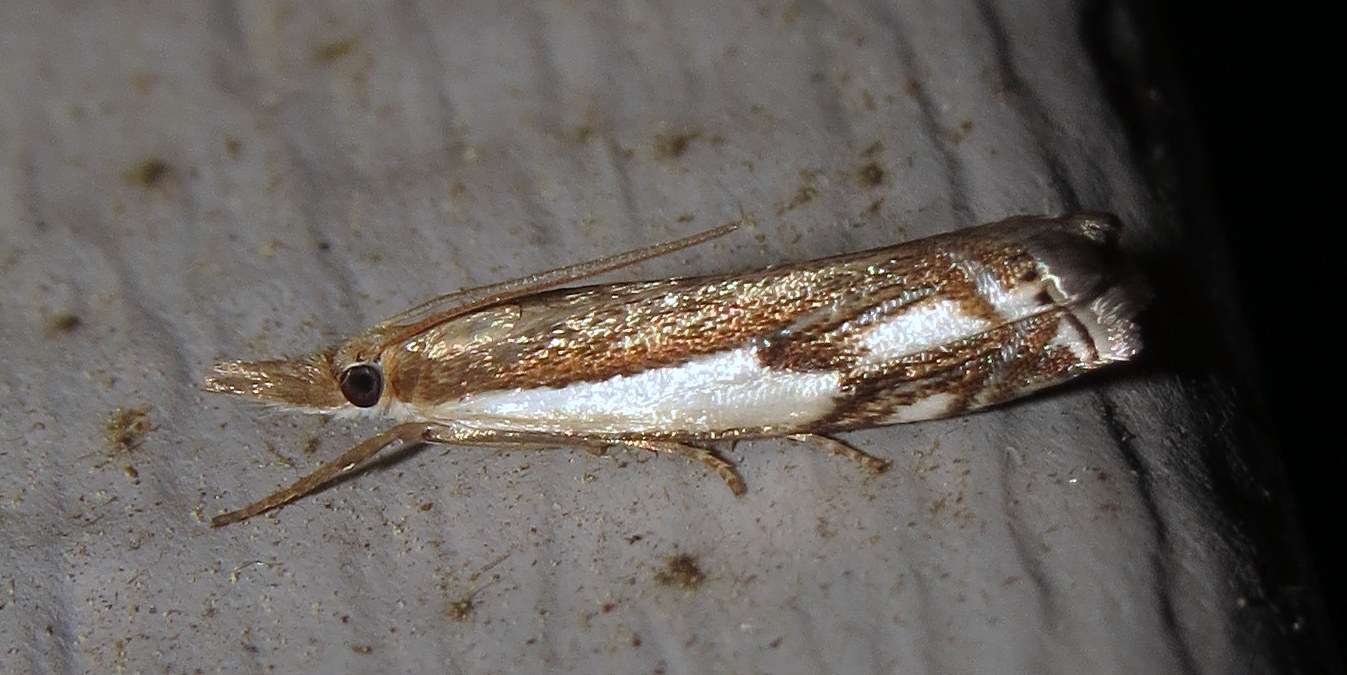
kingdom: Animalia
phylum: Arthropoda
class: Insecta
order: Lepidoptera
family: Crambidae
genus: Crambus
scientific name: Crambus agitatellus
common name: Double-banded grass-veneer
